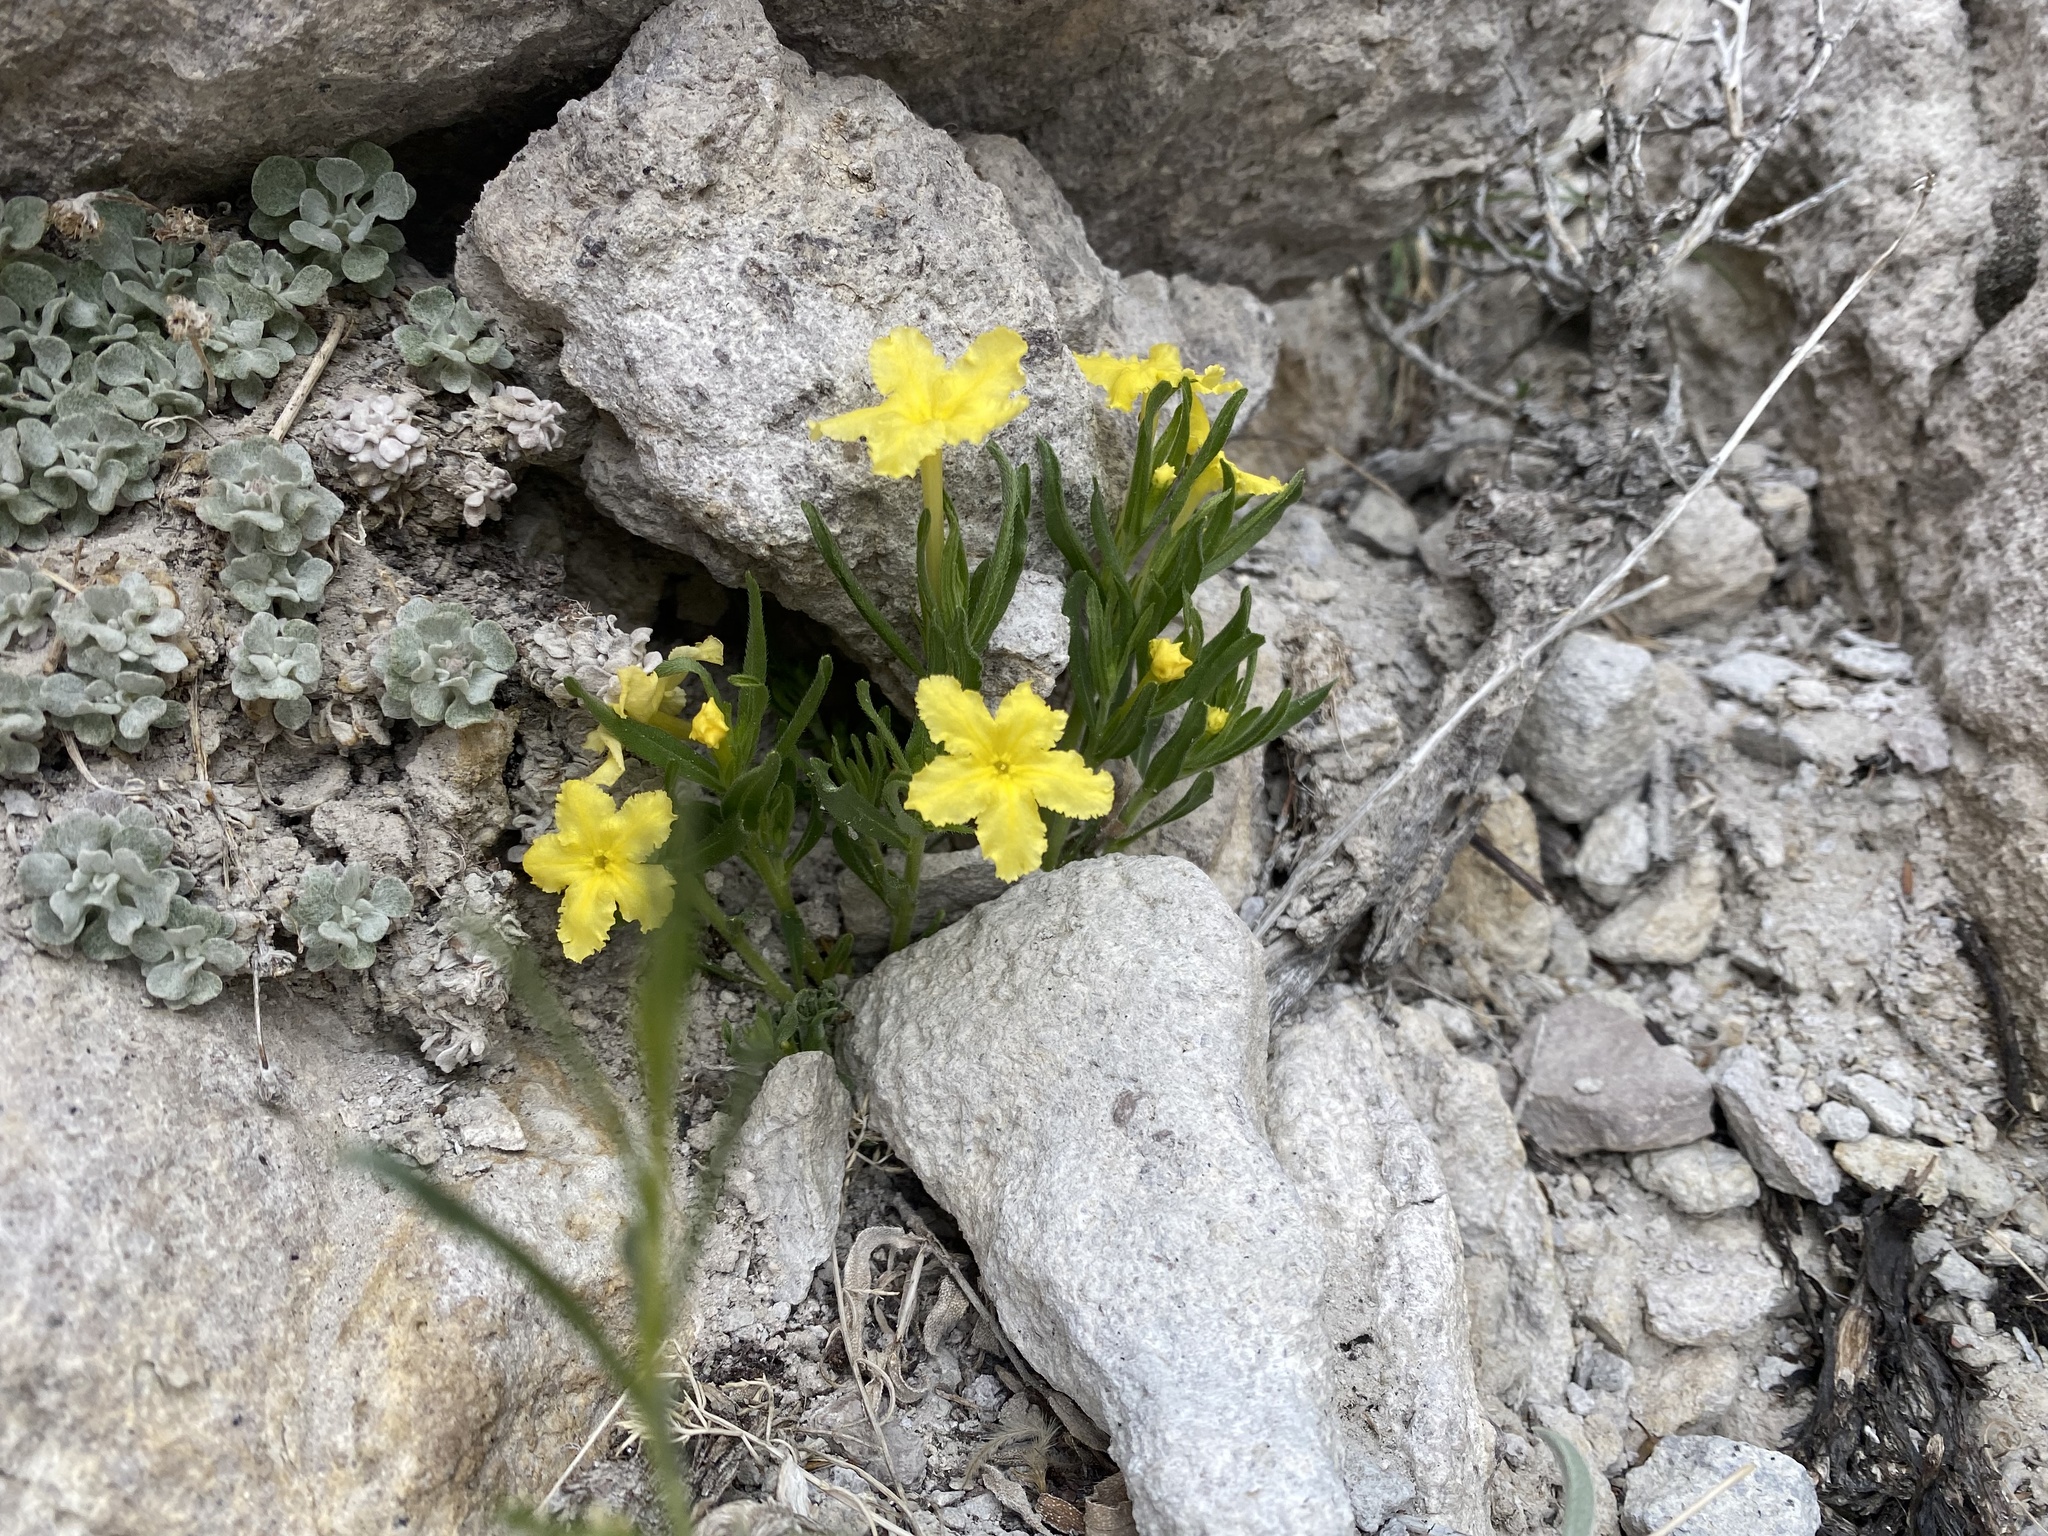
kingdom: Plantae
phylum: Tracheophyta
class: Magnoliopsida
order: Boraginales
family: Boraginaceae
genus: Lithospermum
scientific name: Lithospermum incisum
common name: Fringed gromwell
